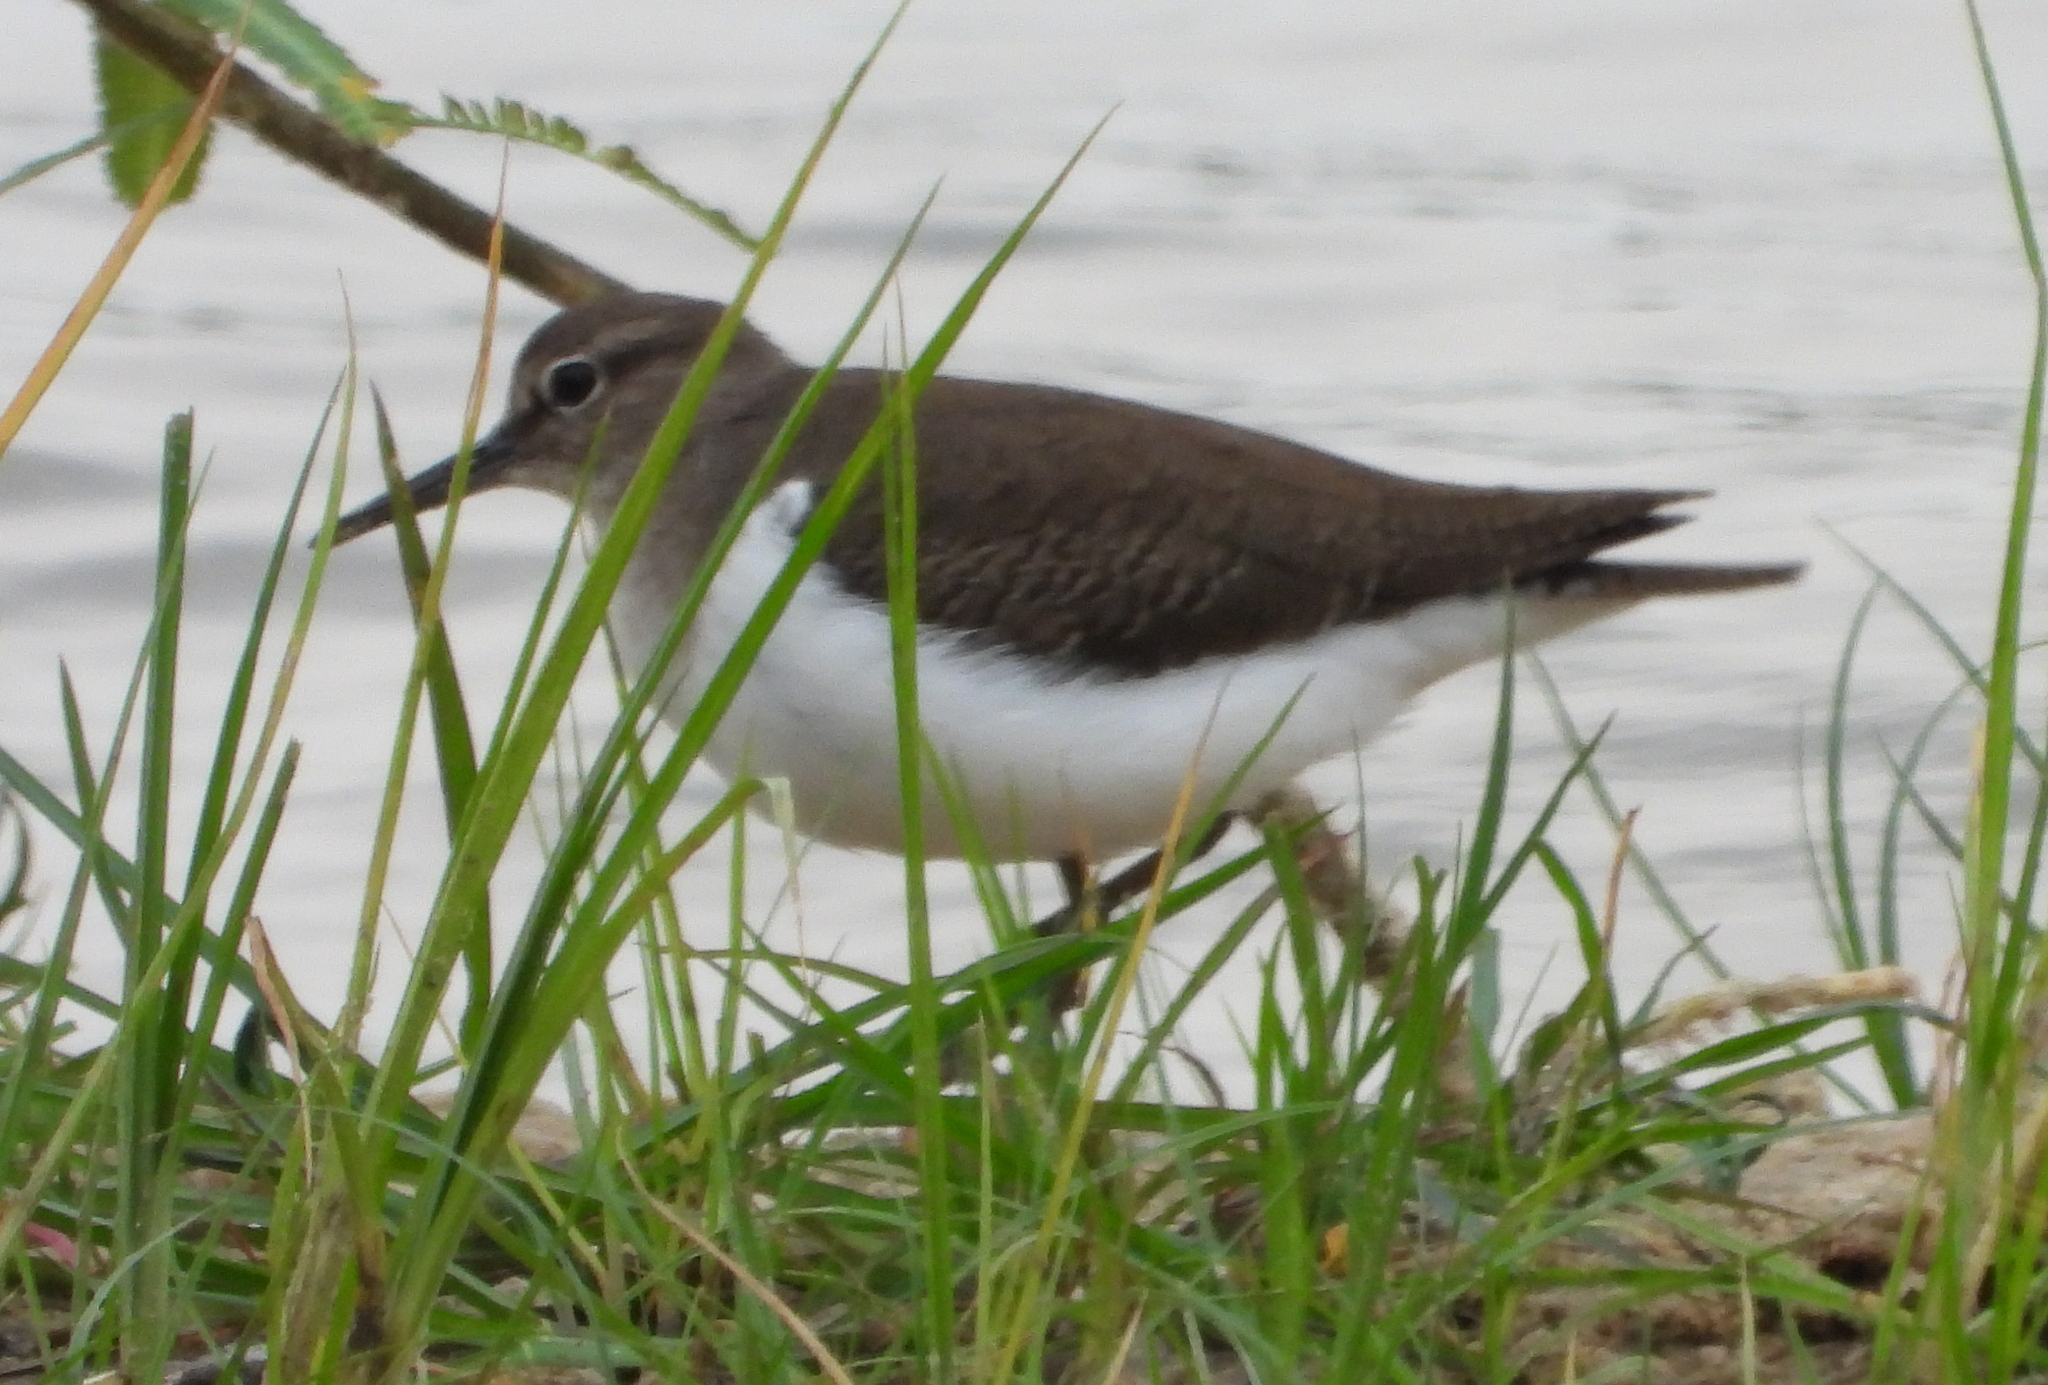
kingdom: Animalia
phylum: Chordata
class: Aves
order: Charadriiformes
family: Scolopacidae
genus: Actitis
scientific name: Actitis hypoleucos
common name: Common sandpiper
